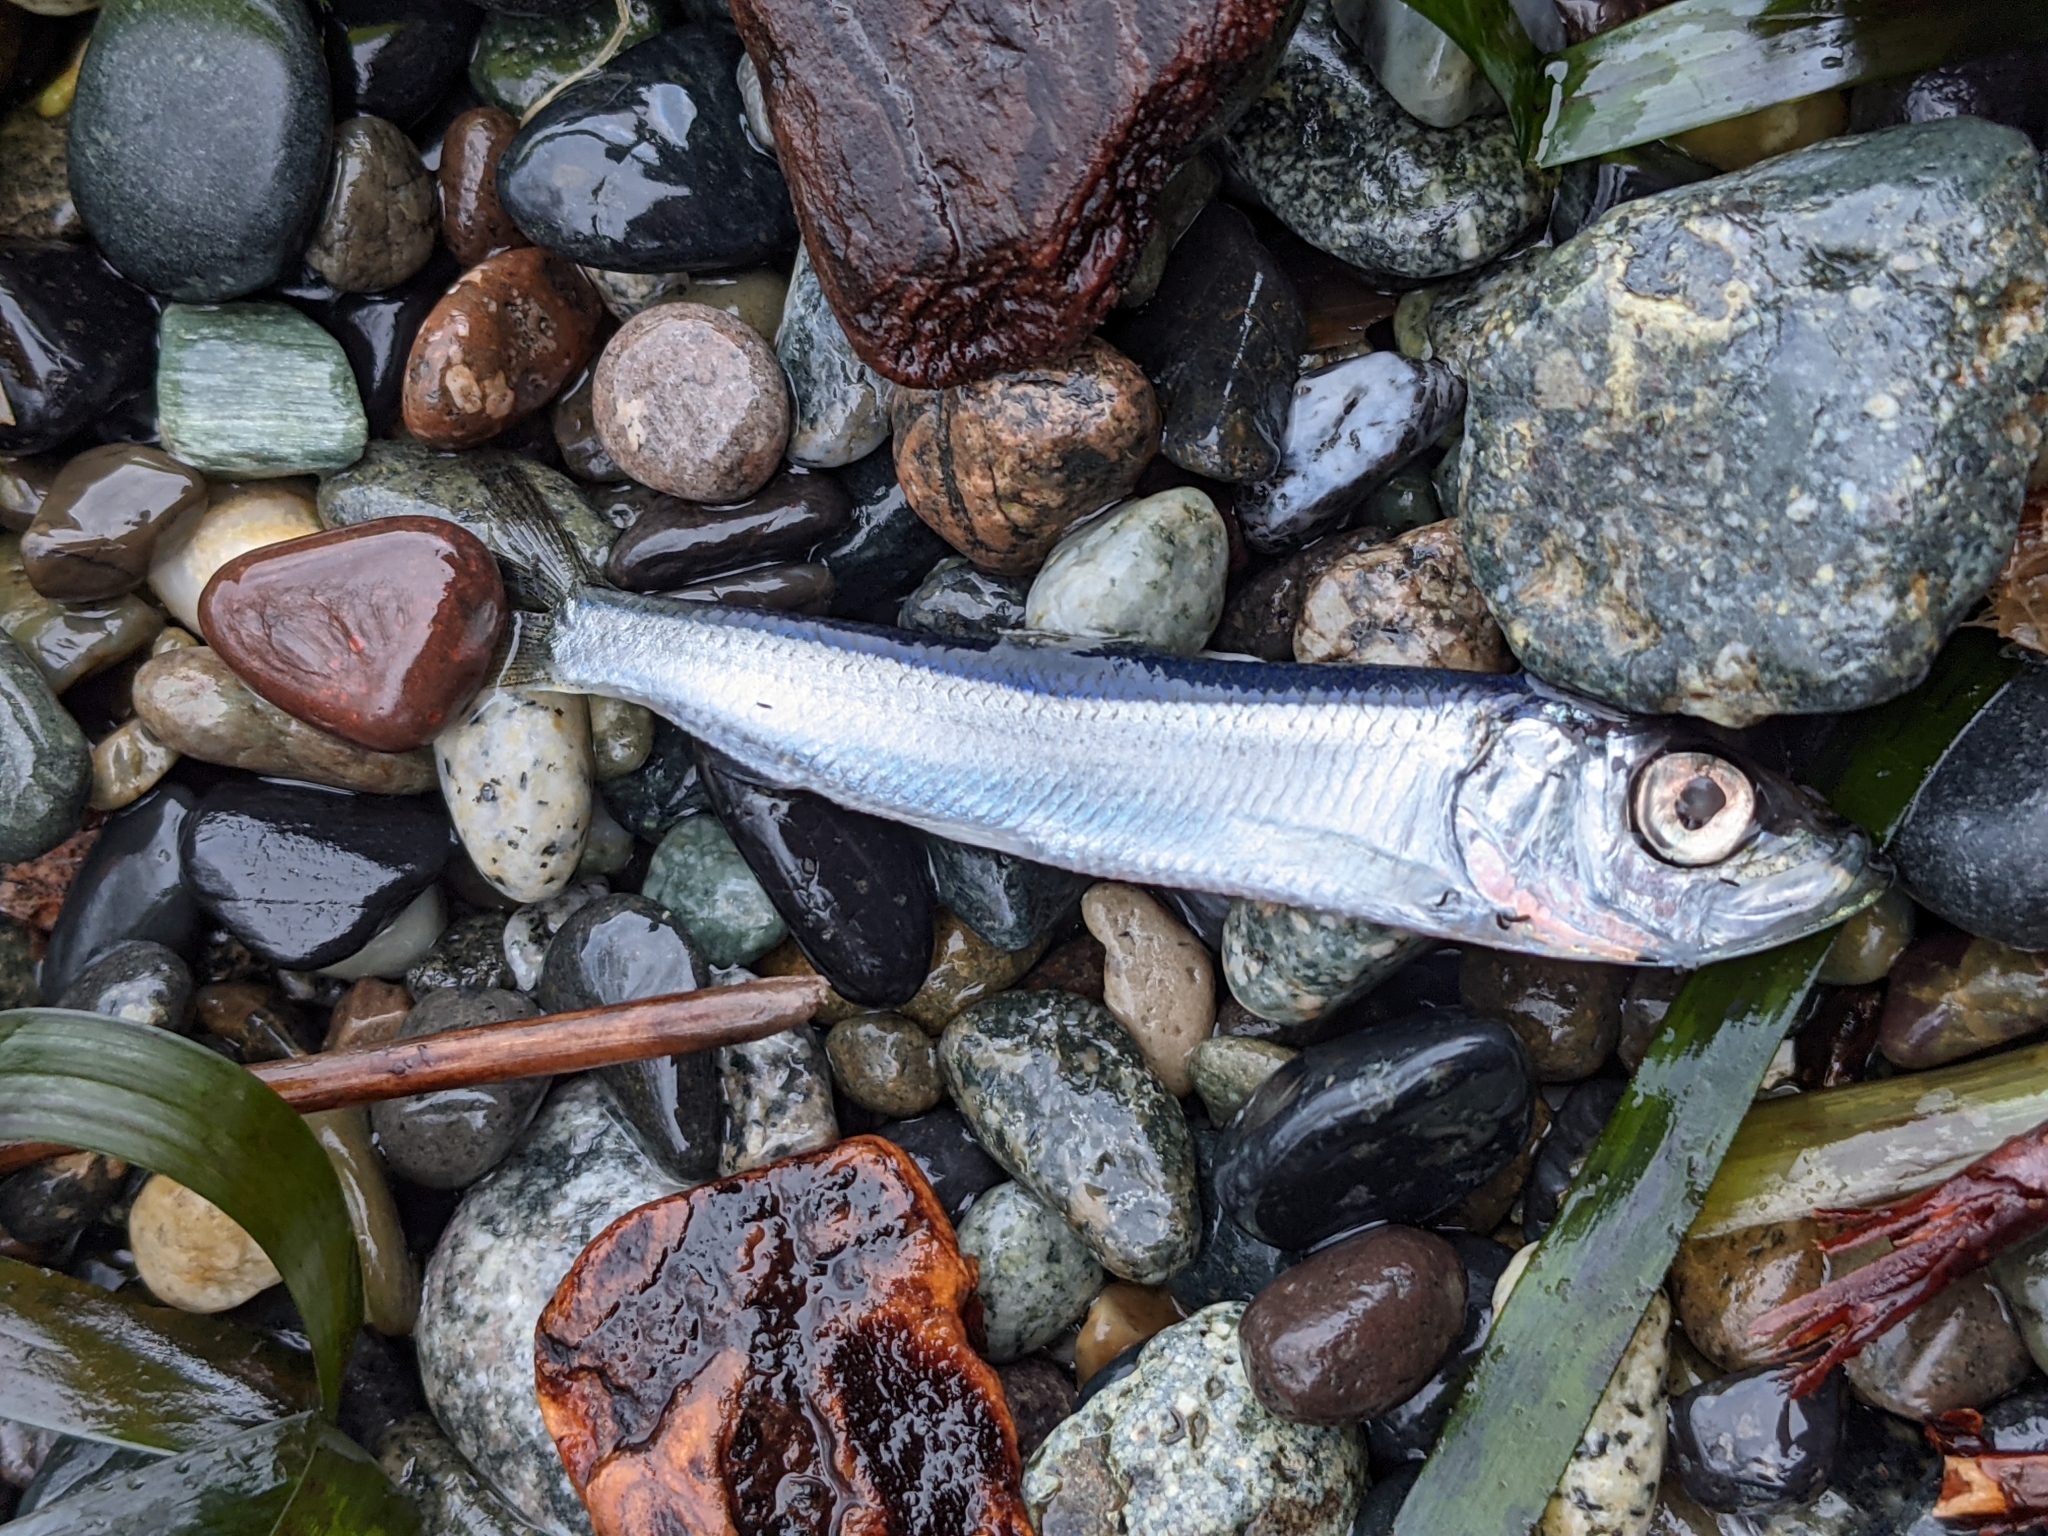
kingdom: Animalia
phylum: Chordata
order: Clupeiformes
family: Clupeidae
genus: Clupea
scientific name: Clupea pallasii
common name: Pacific herring
